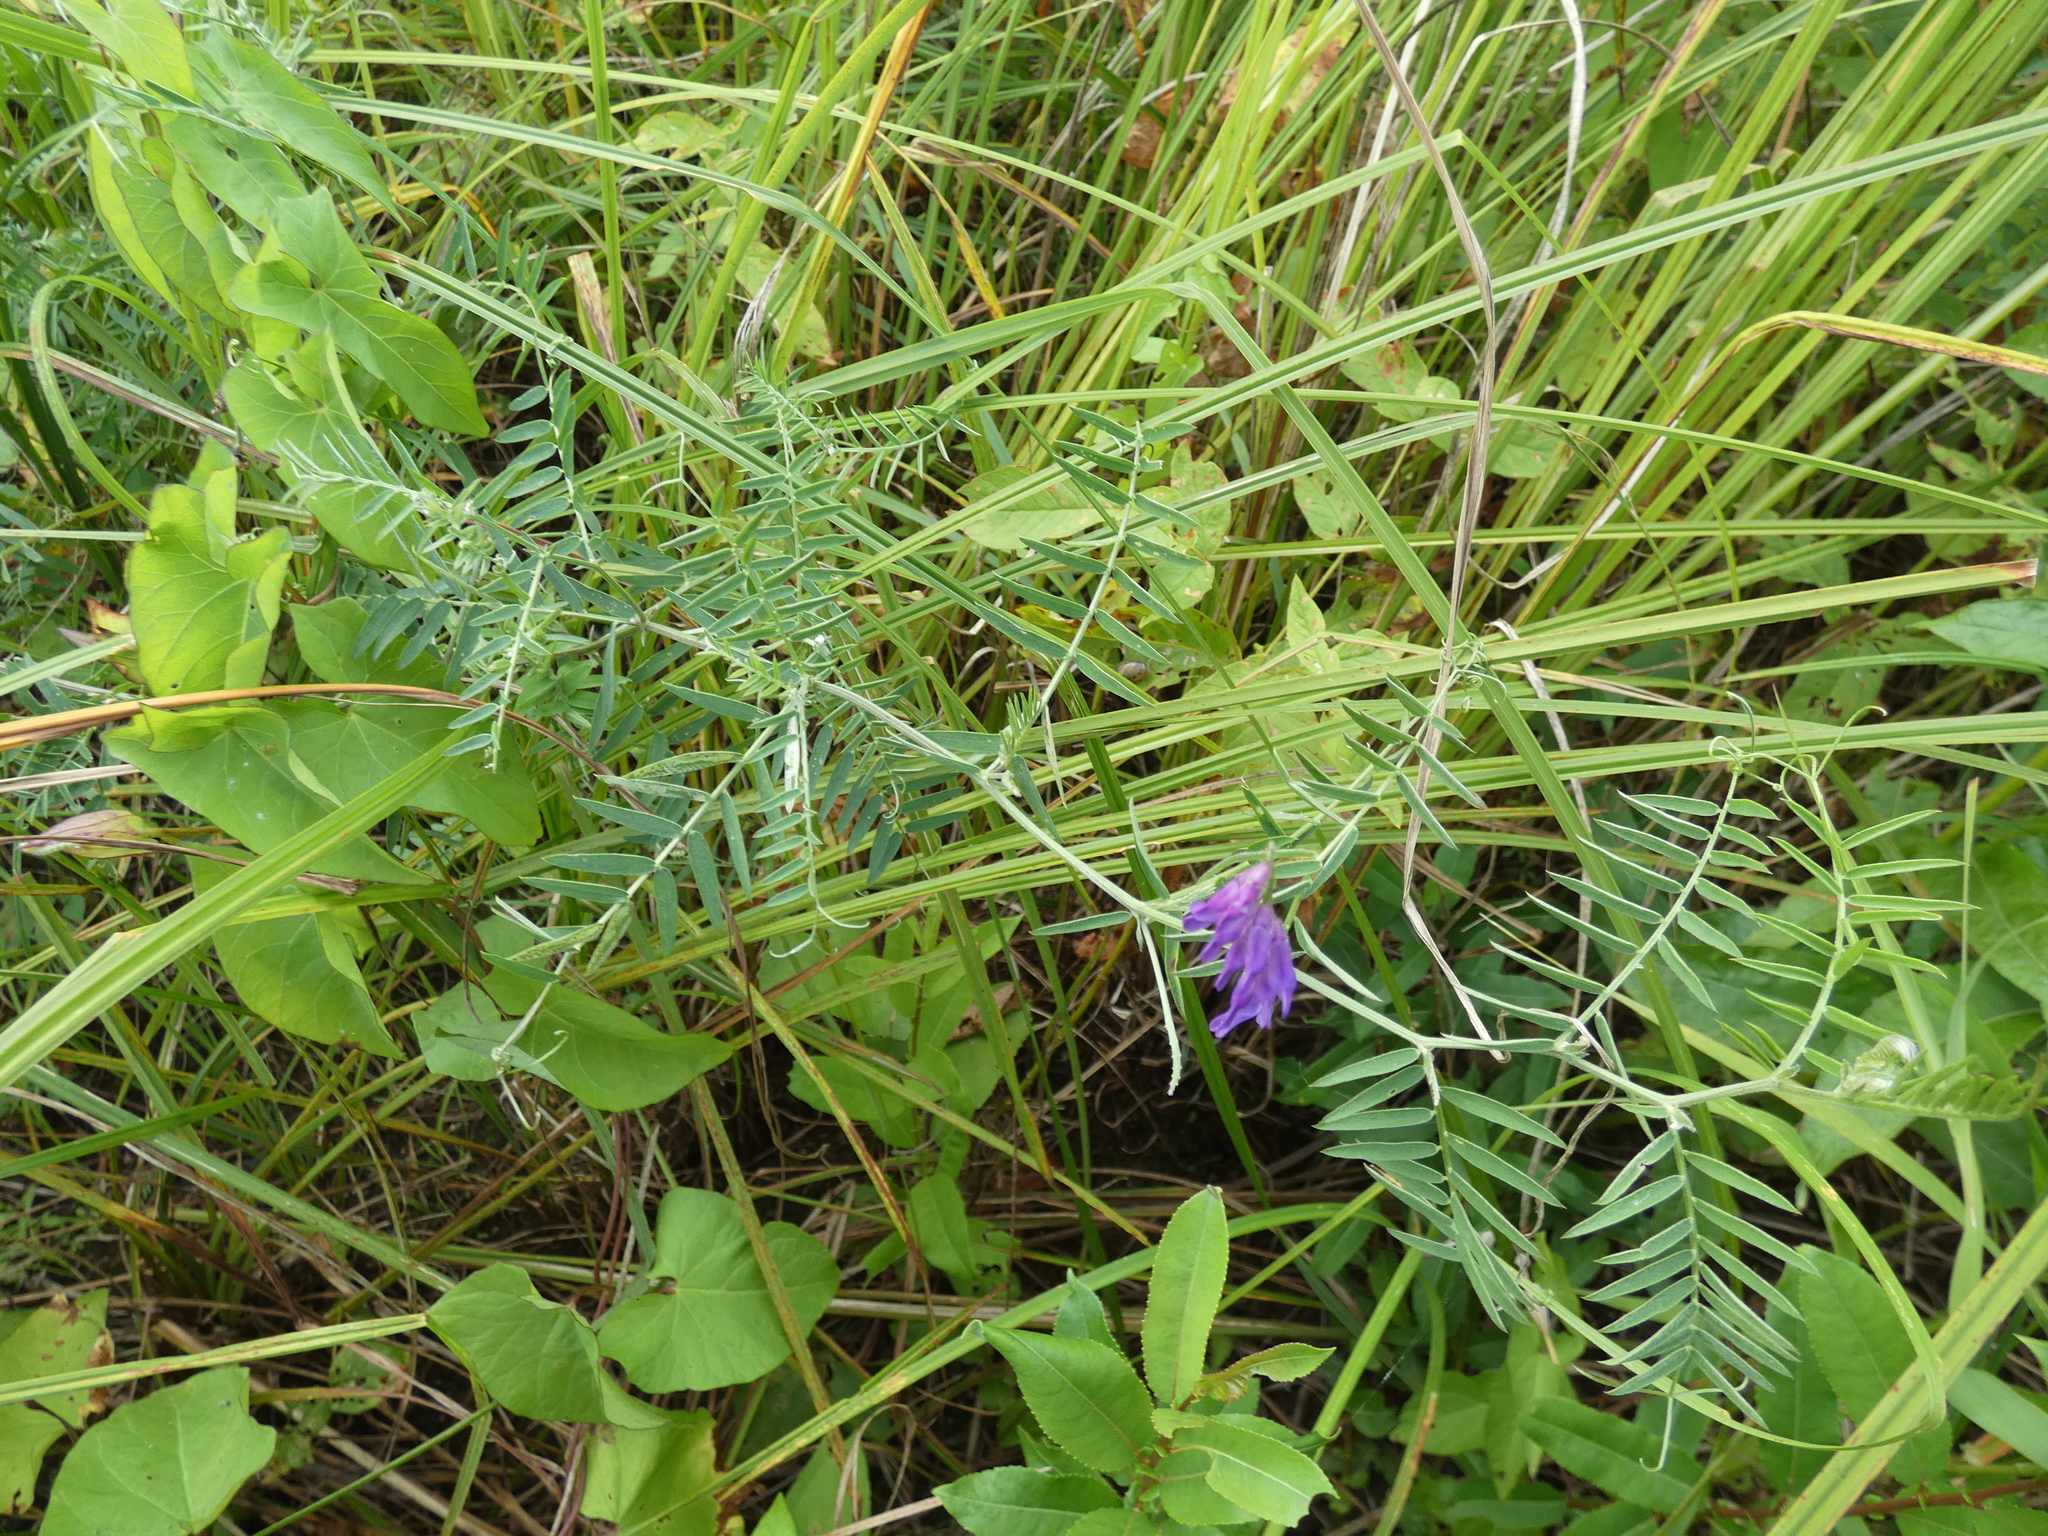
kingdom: Plantae
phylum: Tracheophyta
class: Magnoliopsida
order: Fabales
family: Fabaceae
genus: Vicia
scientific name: Vicia cracca
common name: Bird vetch
